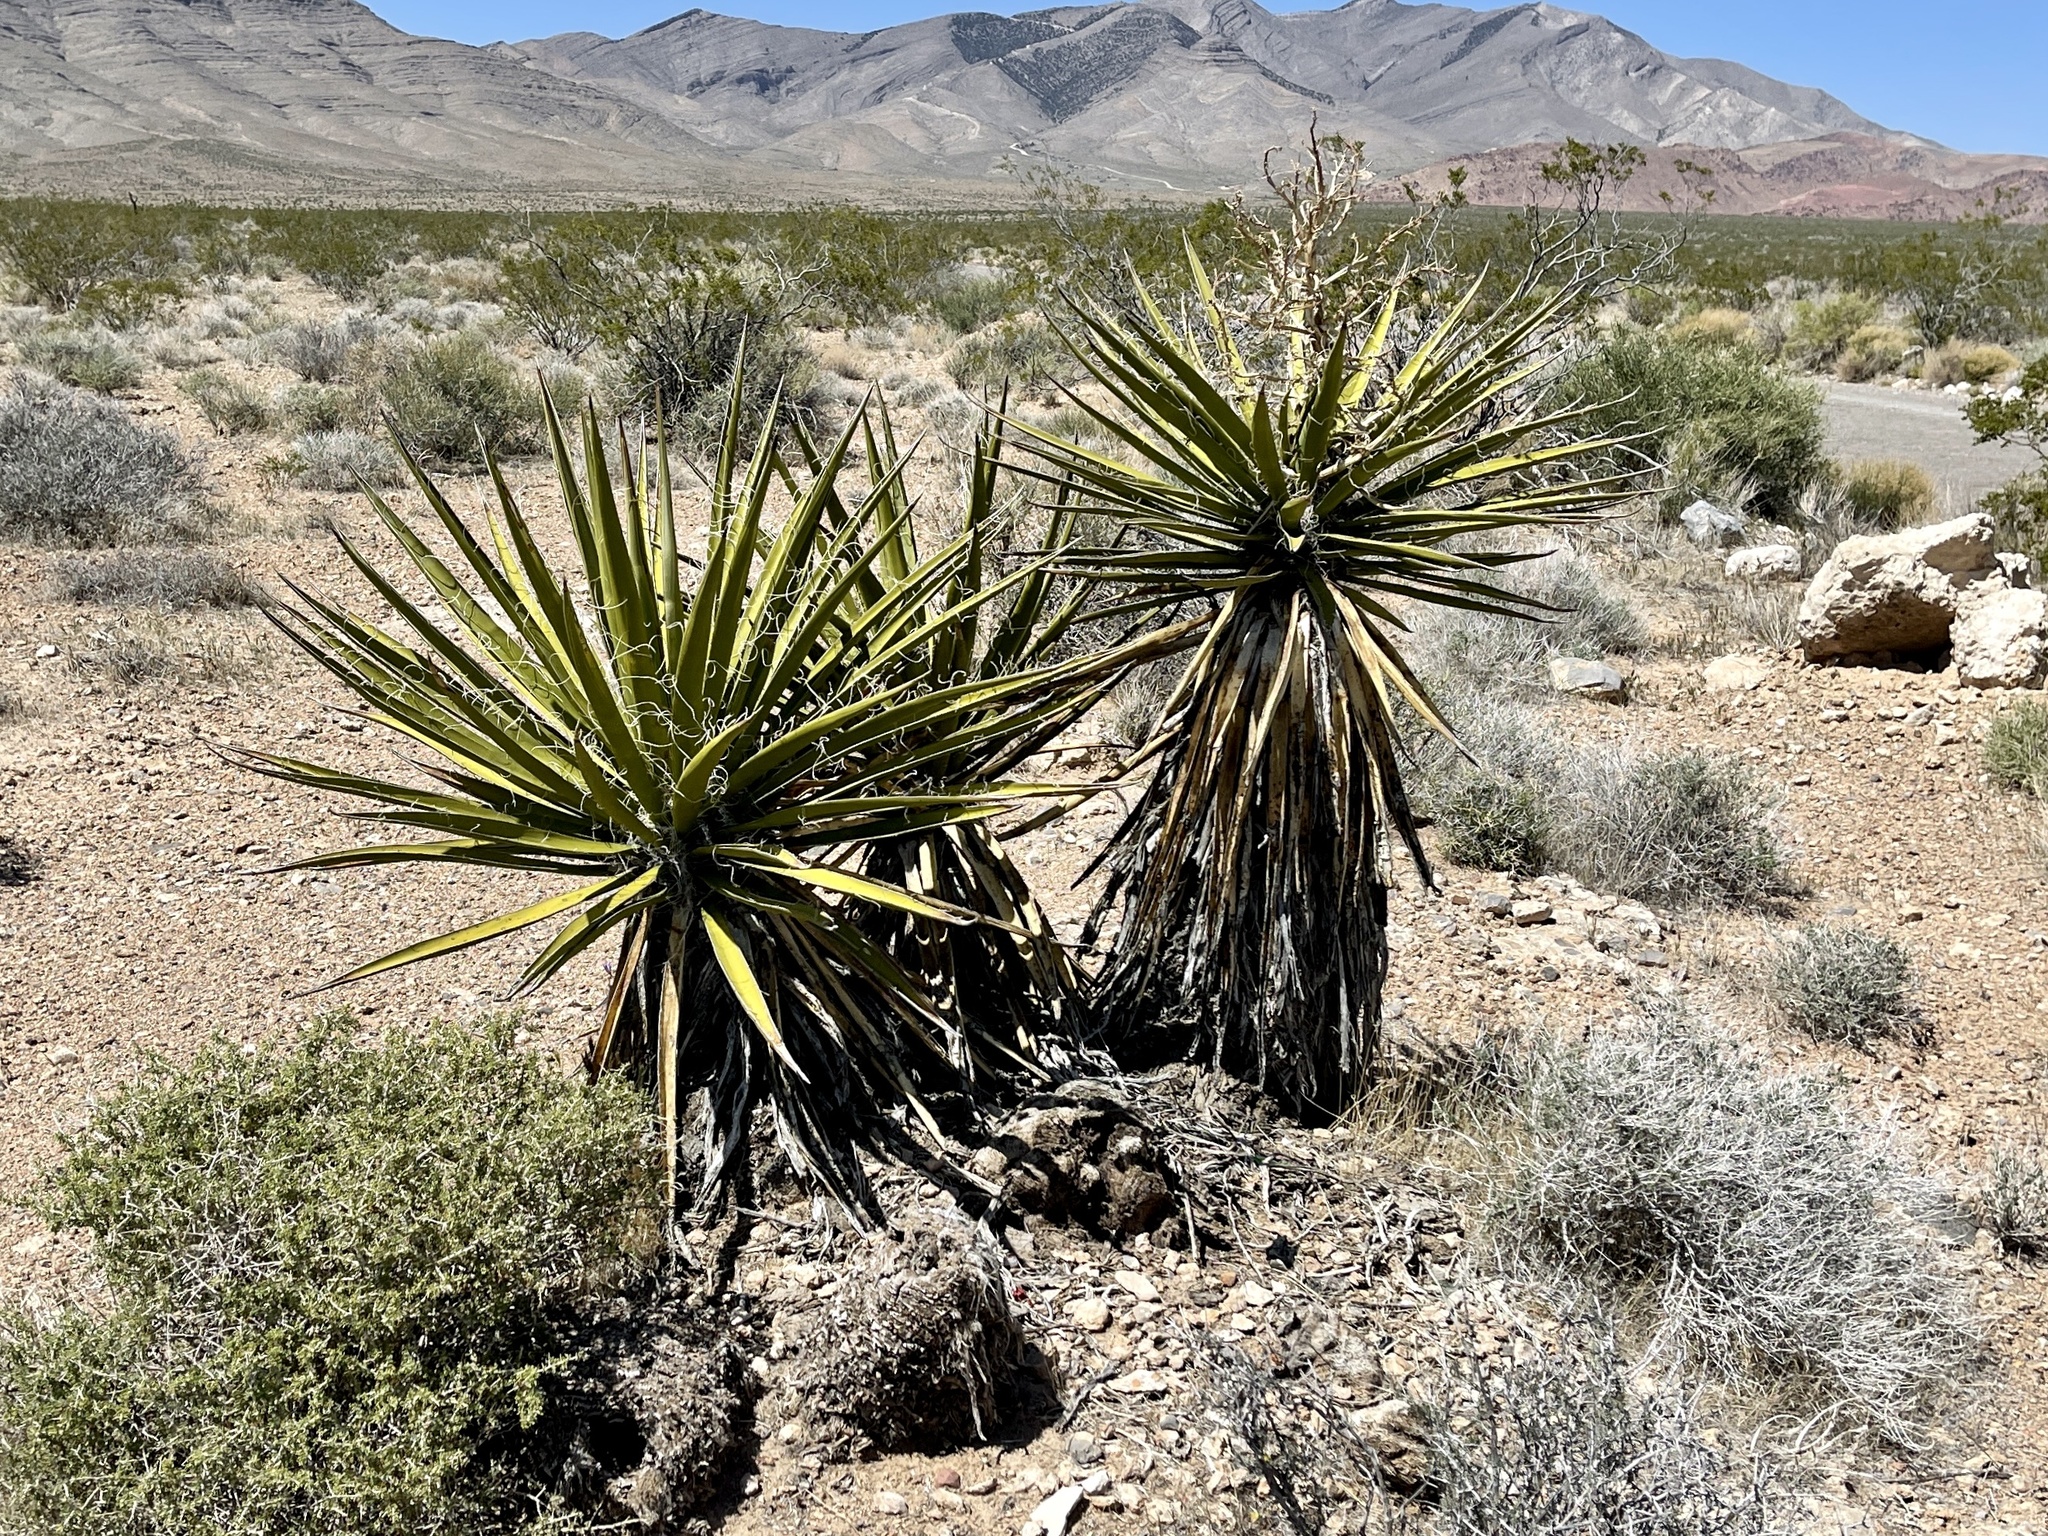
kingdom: Plantae
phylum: Tracheophyta
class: Liliopsida
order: Asparagales
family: Asparagaceae
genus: Yucca
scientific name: Yucca schidigera
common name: Mojave yucca
